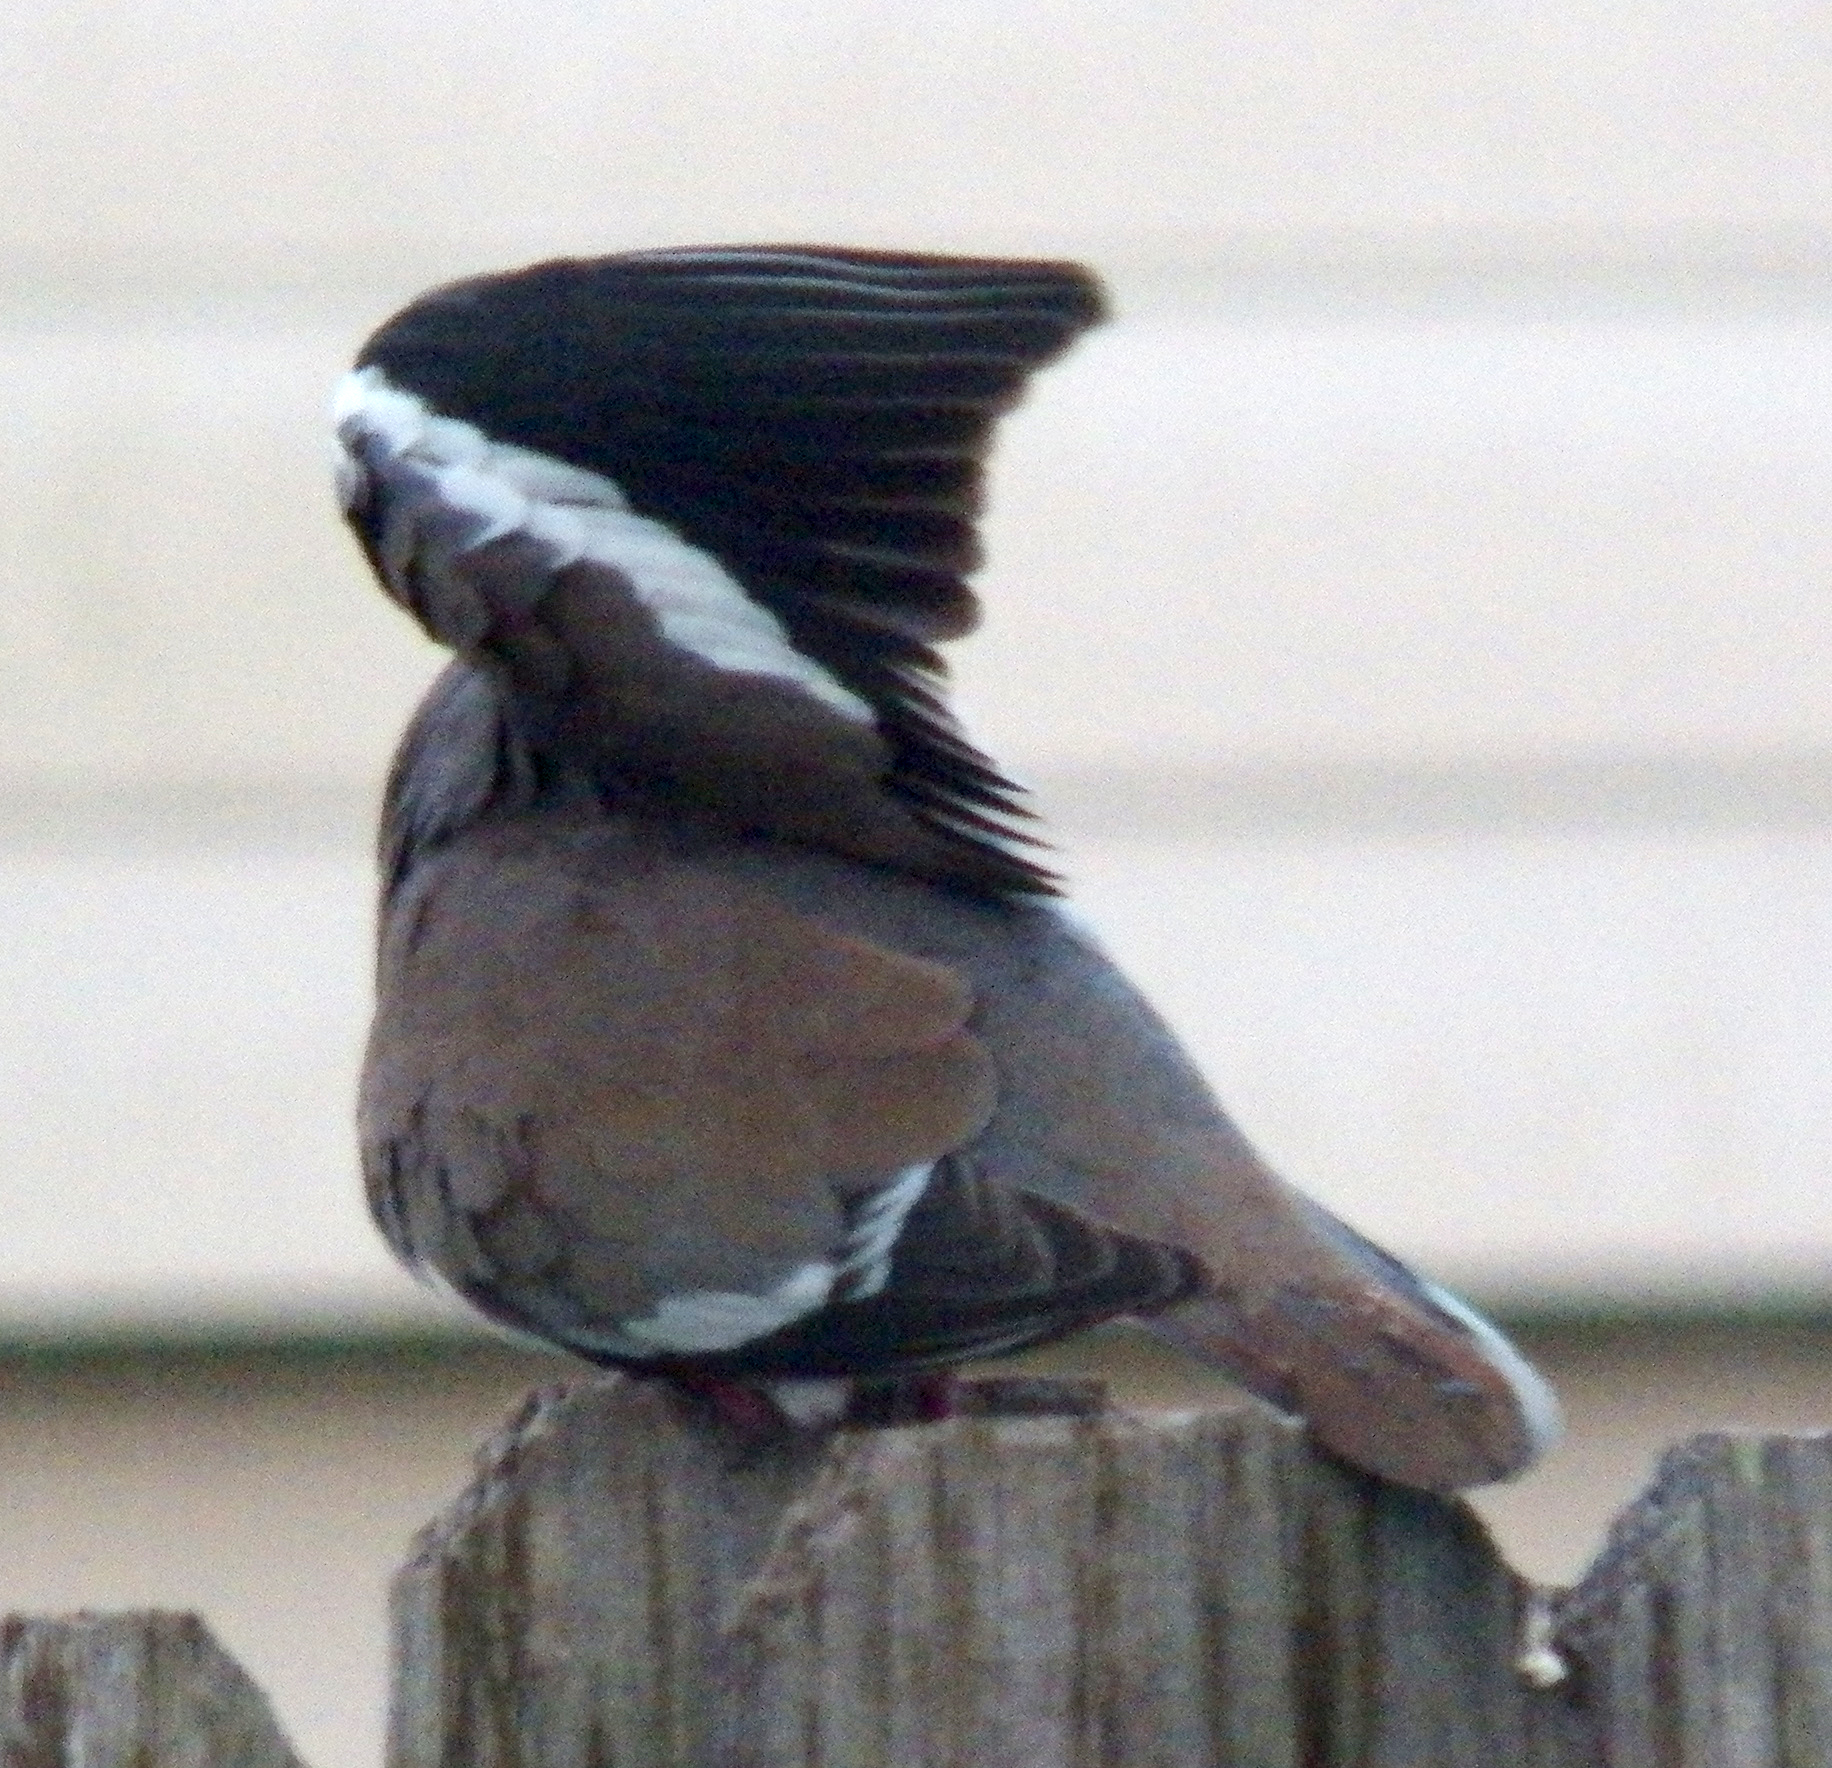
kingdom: Animalia
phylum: Chordata
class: Aves
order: Columbiformes
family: Columbidae
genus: Zenaida
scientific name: Zenaida asiatica
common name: White-winged dove
